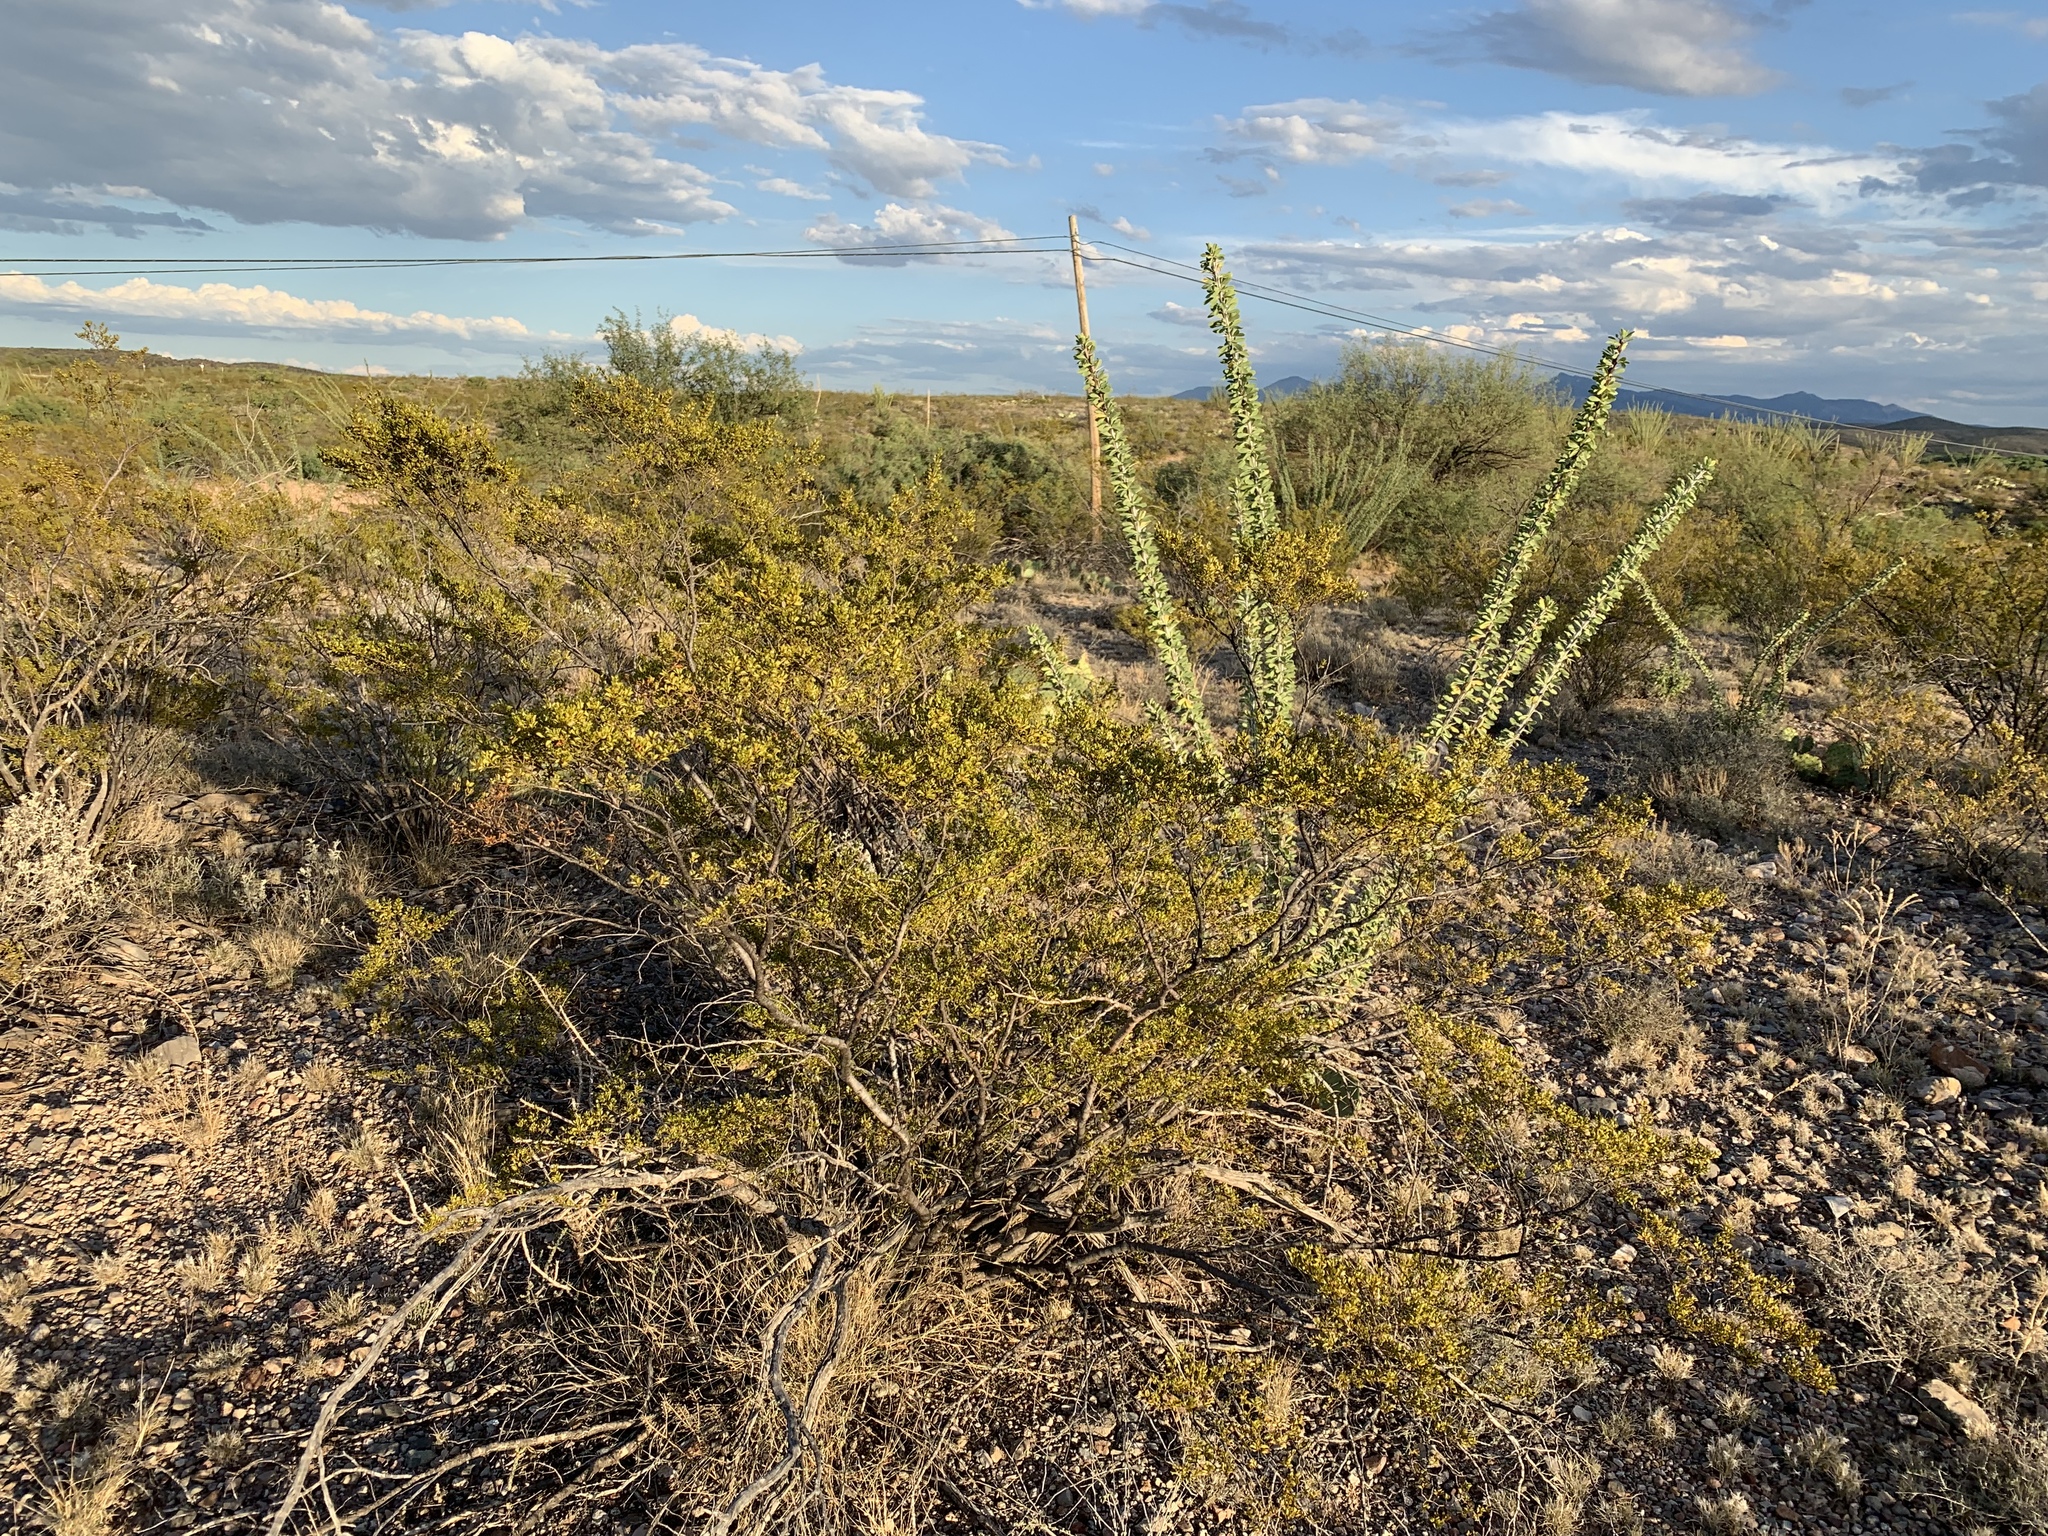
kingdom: Plantae
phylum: Tracheophyta
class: Magnoliopsida
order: Zygophyllales
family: Zygophyllaceae
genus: Larrea
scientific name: Larrea tridentata
